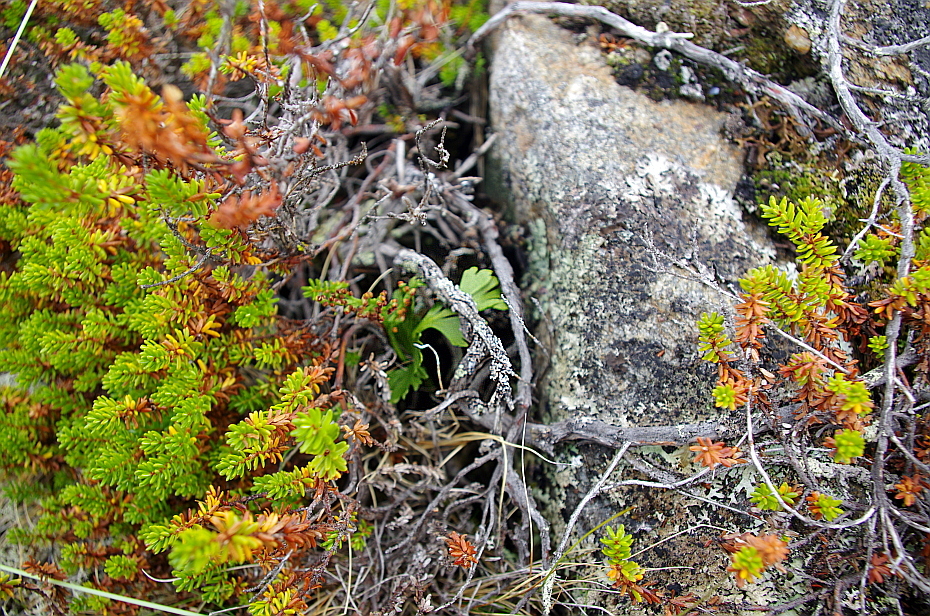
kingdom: Plantae
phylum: Tracheophyta
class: Magnoliopsida
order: Ericales
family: Ericaceae
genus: Empetrum
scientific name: Empetrum nigrum
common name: Black crowberry
